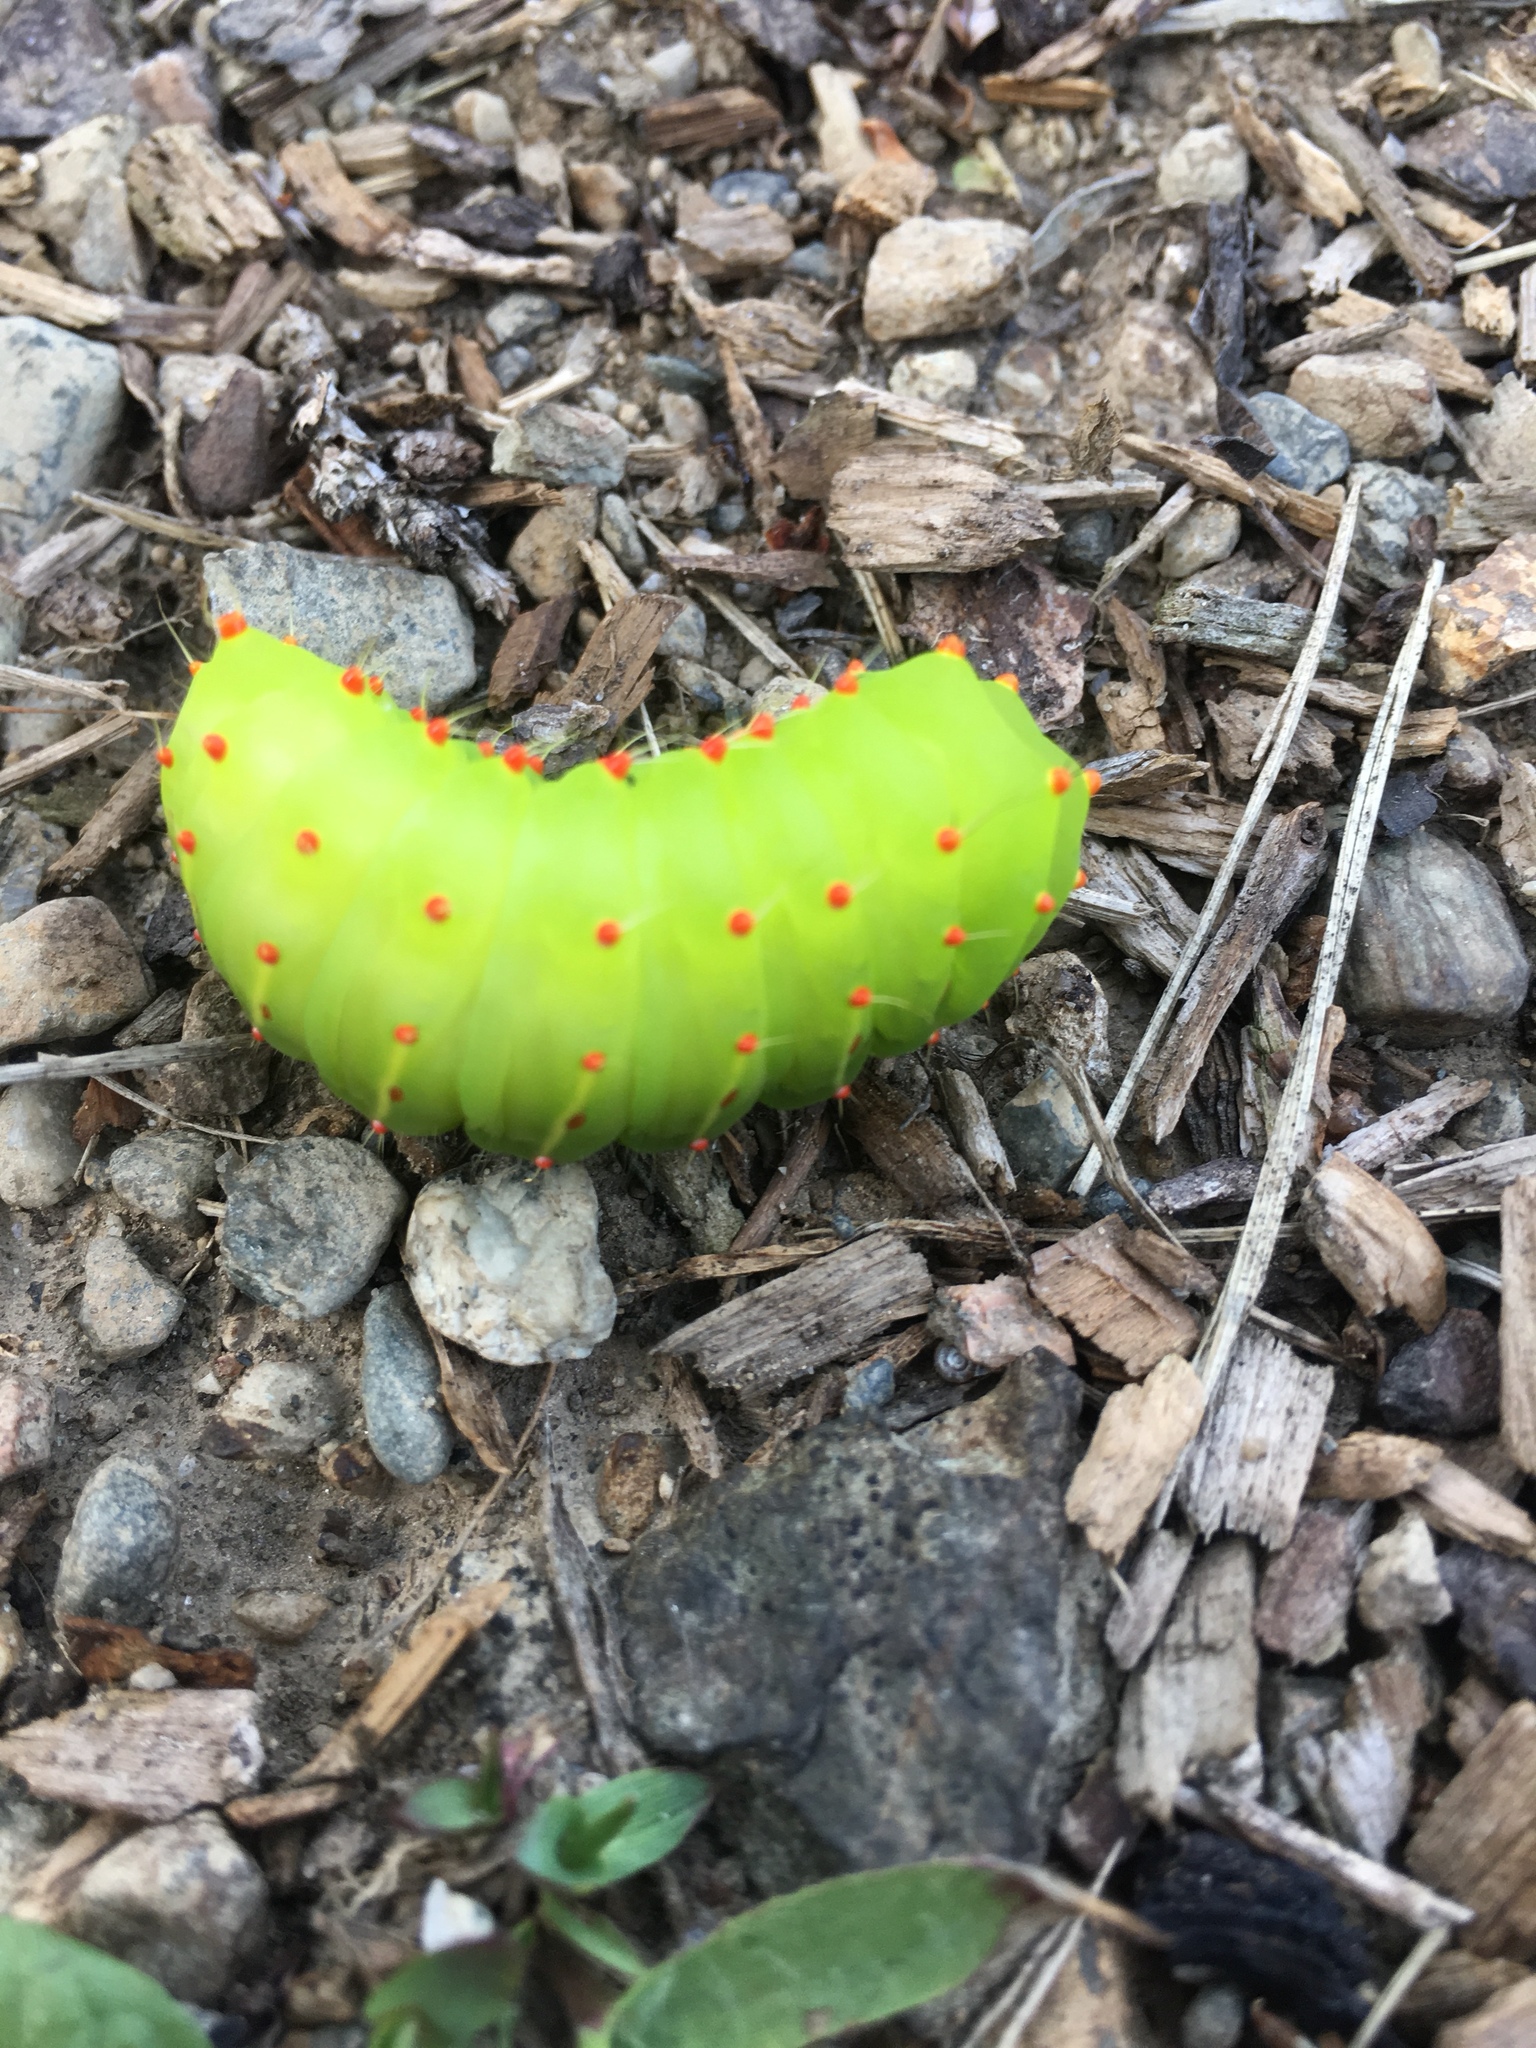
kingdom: Animalia
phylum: Arthropoda
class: Insecta
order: Lepidoptera
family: Saturniidae
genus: Antheraea
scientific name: Antheraea polyphemus
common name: Polyphemus moth
